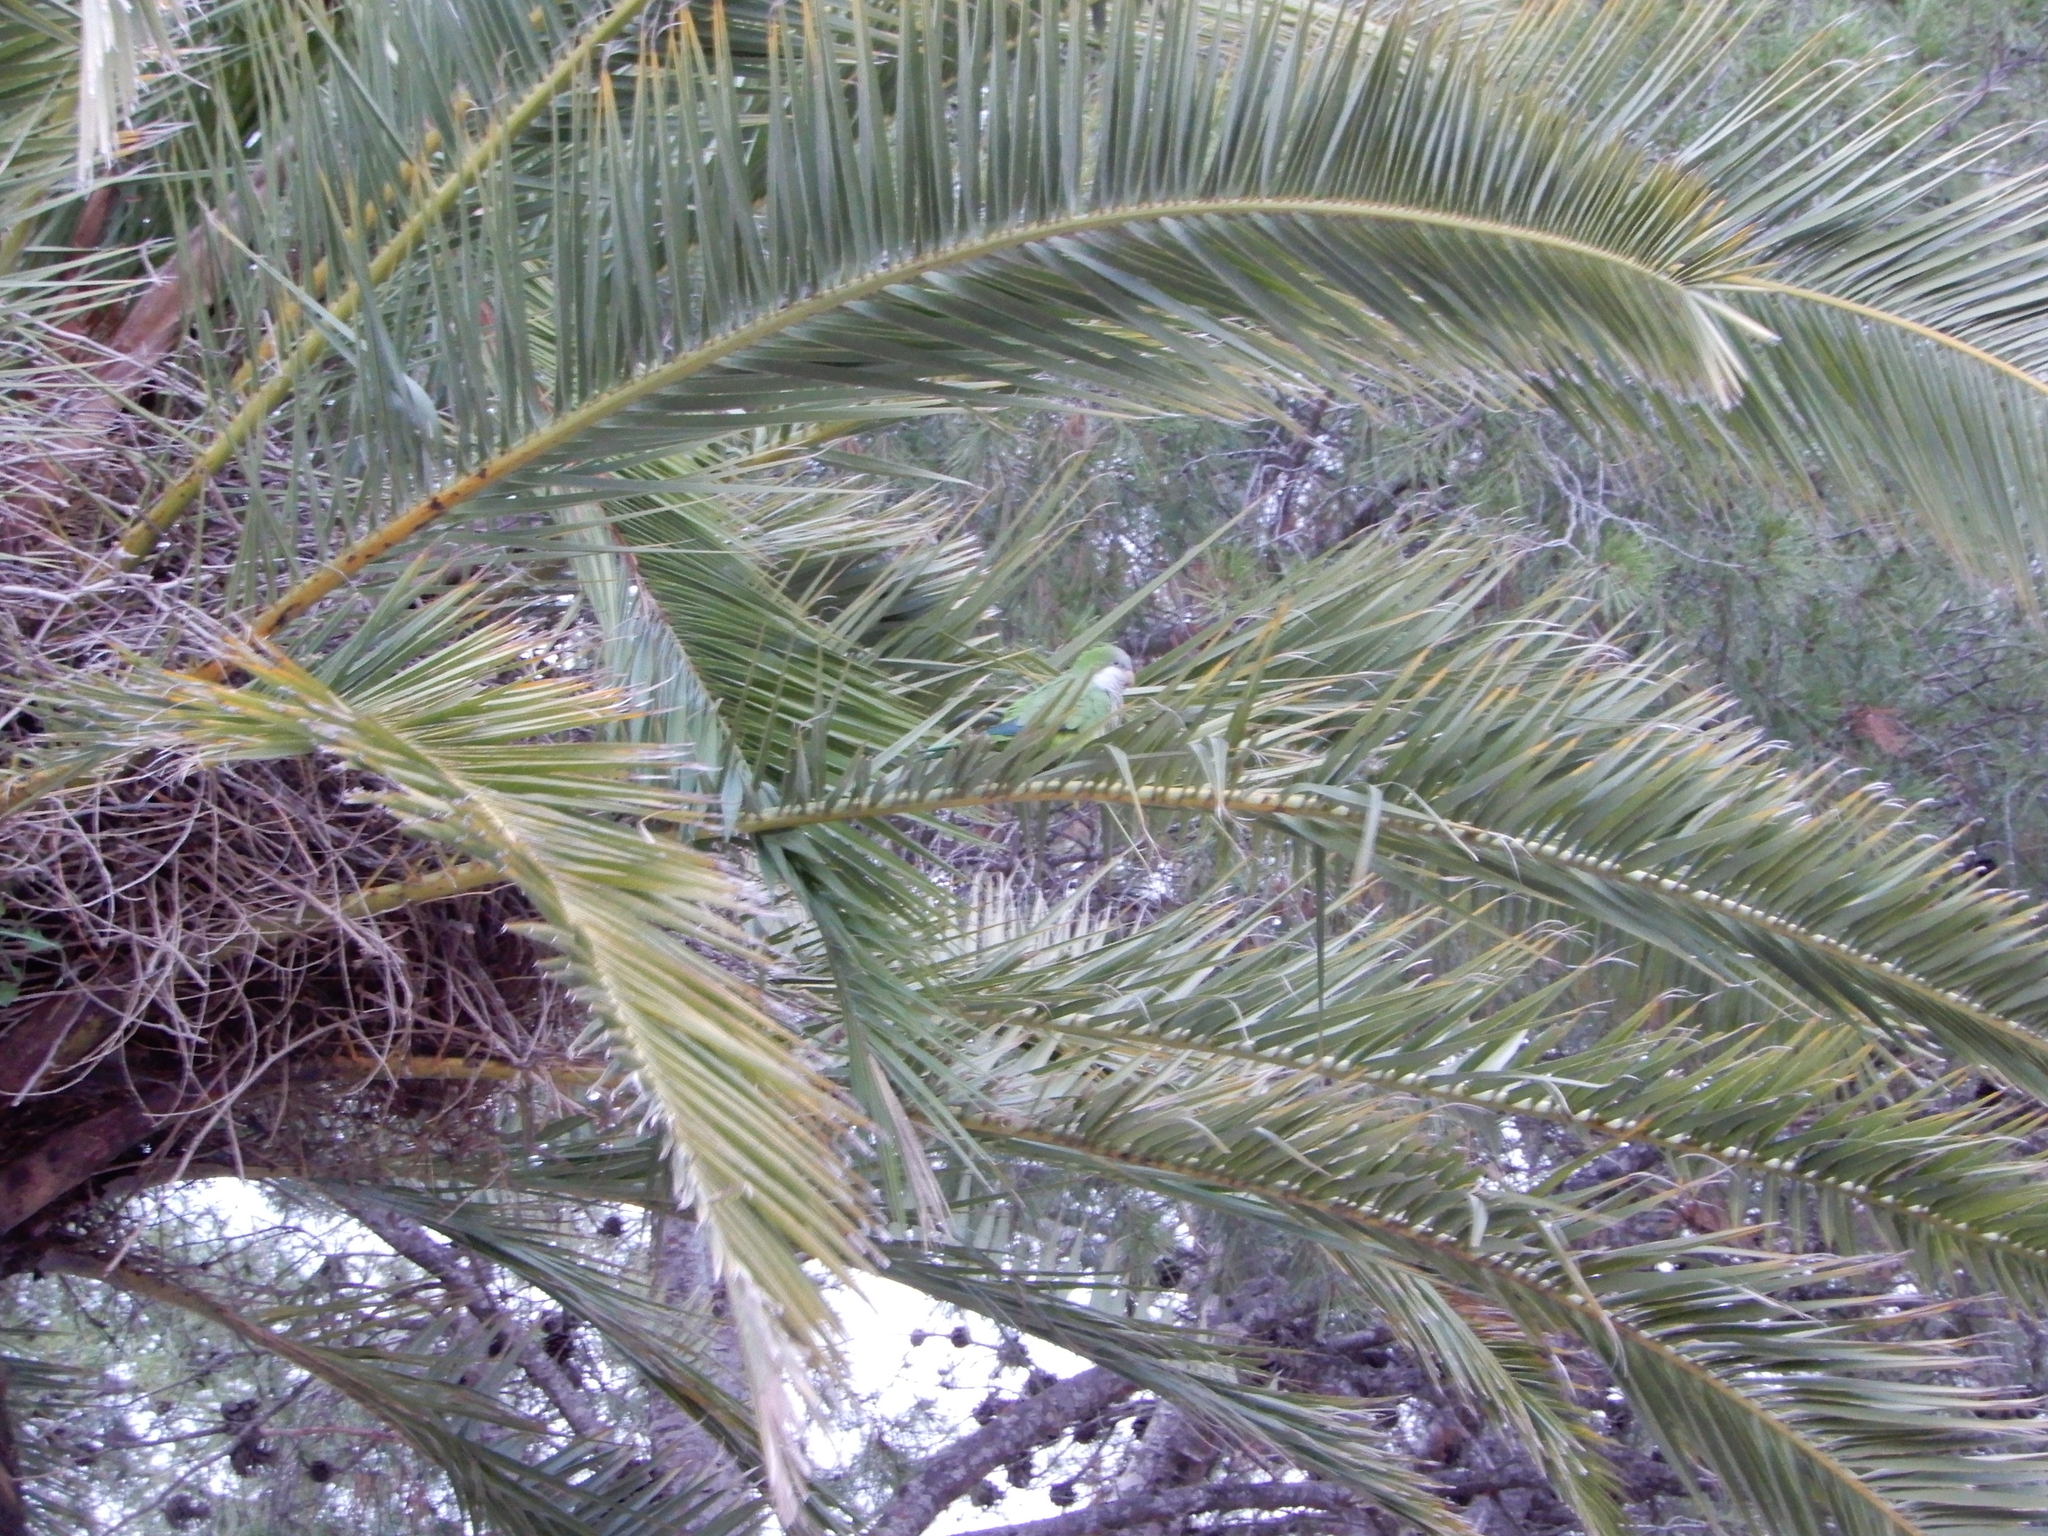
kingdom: Animalia
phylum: Chordata
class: Aves
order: Psittaciformes
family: Psittacidae
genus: Myiopsitta
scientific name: Myiopsitta monachus
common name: Monk parakeet
